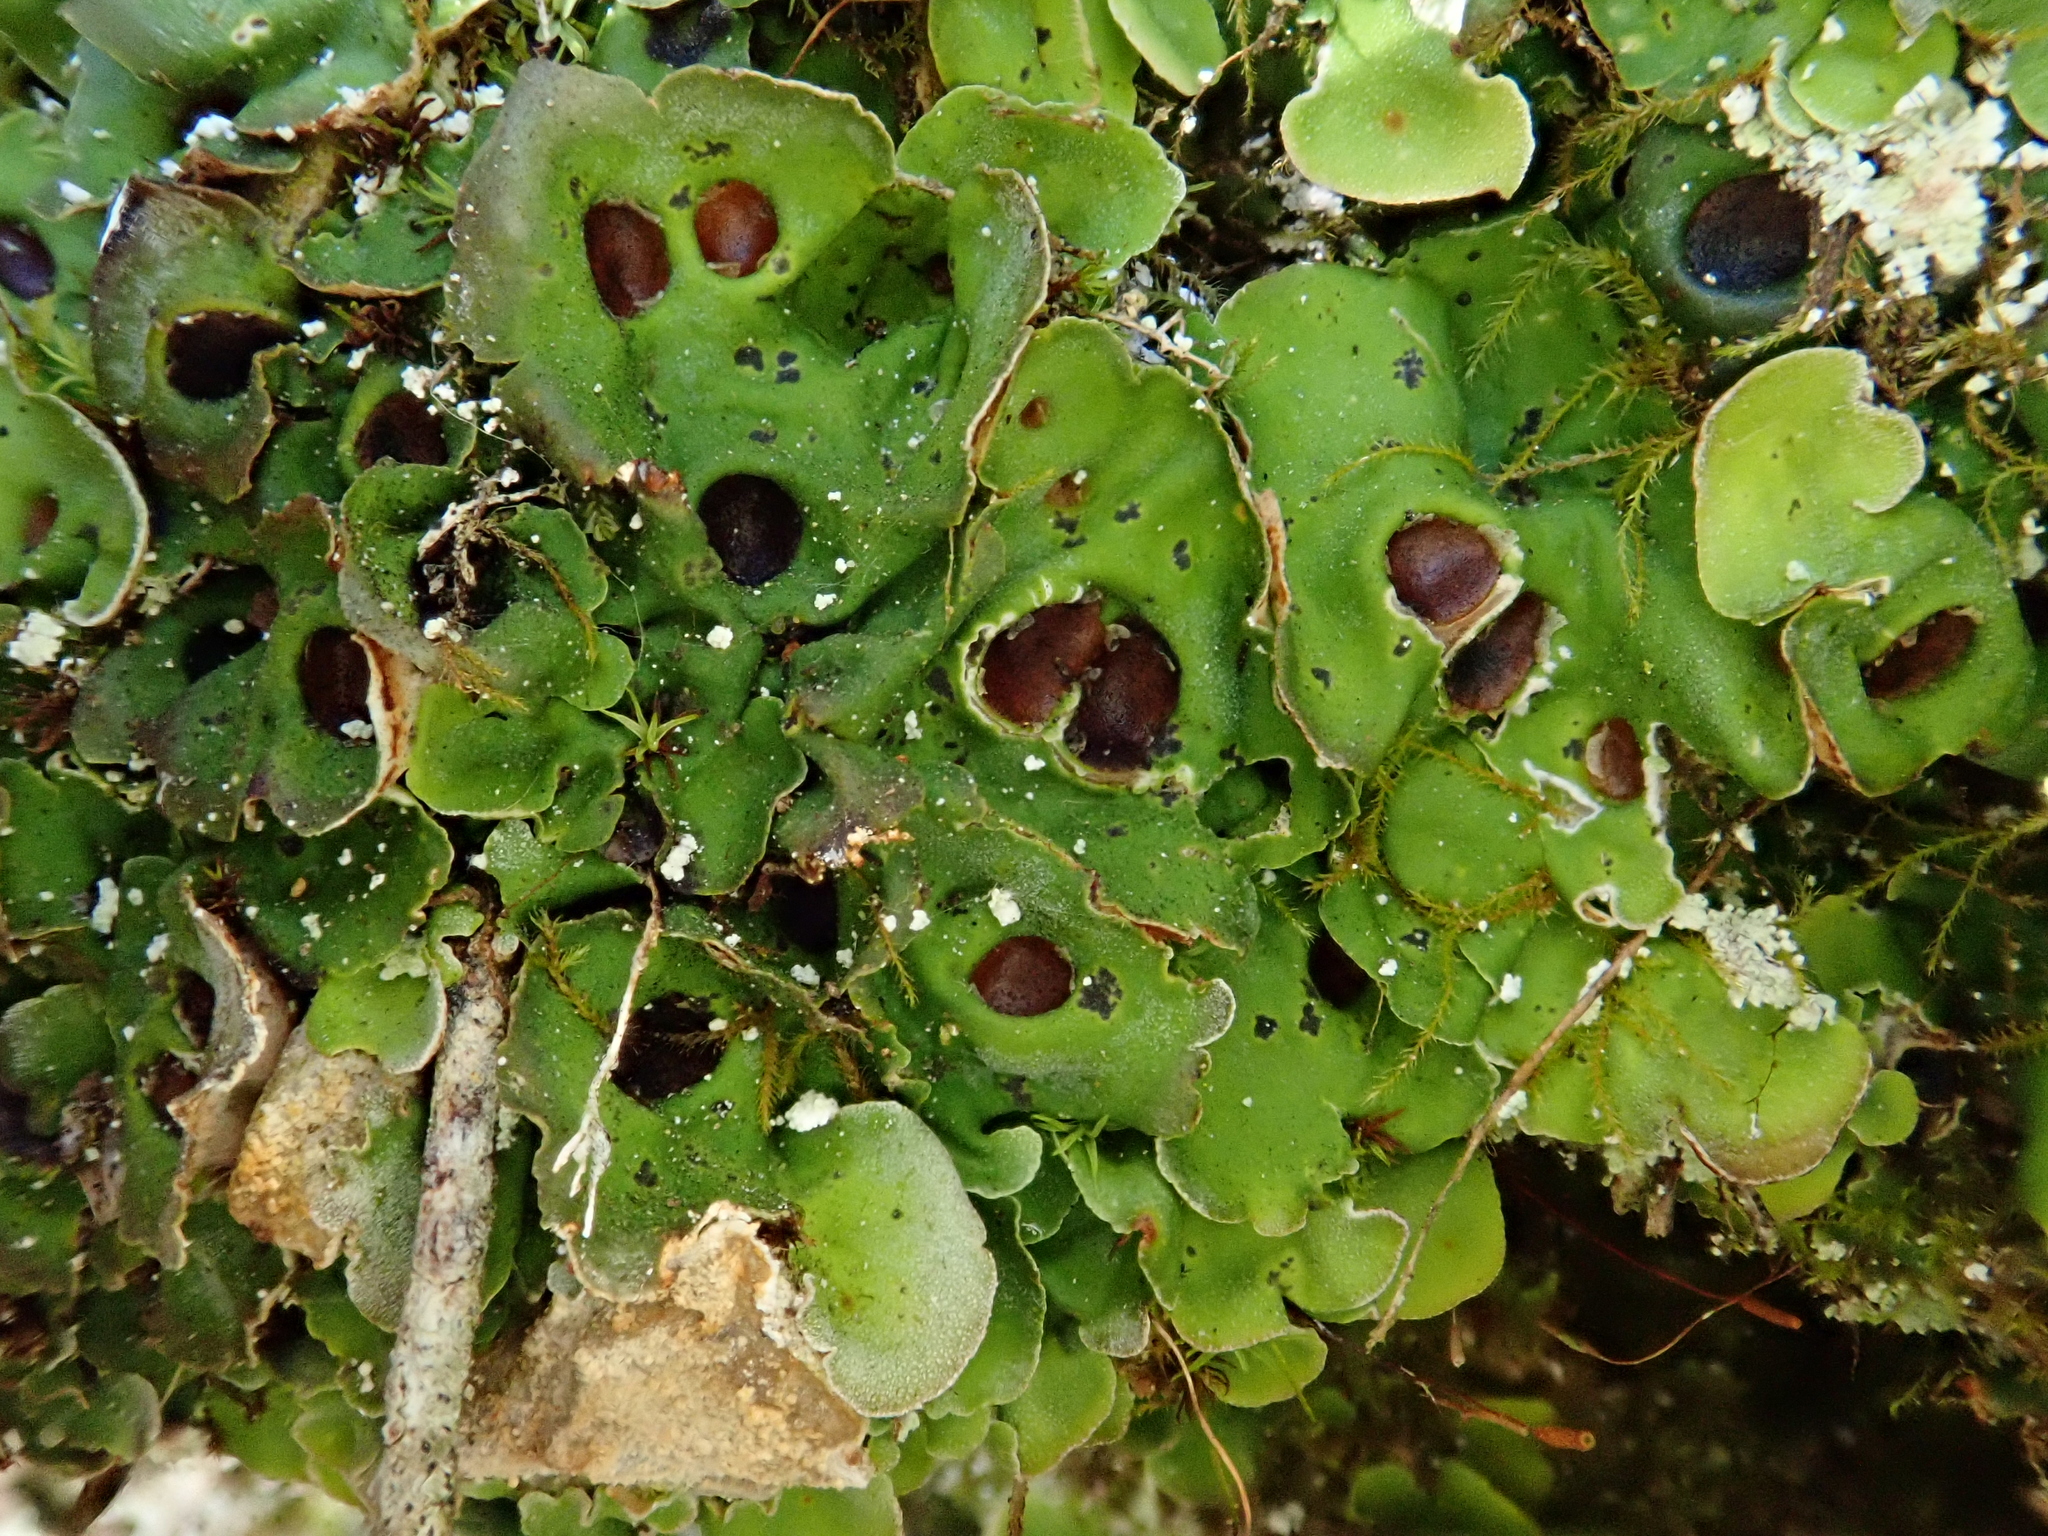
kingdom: Fungi
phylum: Ascomycota
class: Lecanoromycetes
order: Peltigerales
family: Peltigeraceae
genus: Solorina
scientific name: Solorina saccata
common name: Common chocolate chip lichen
